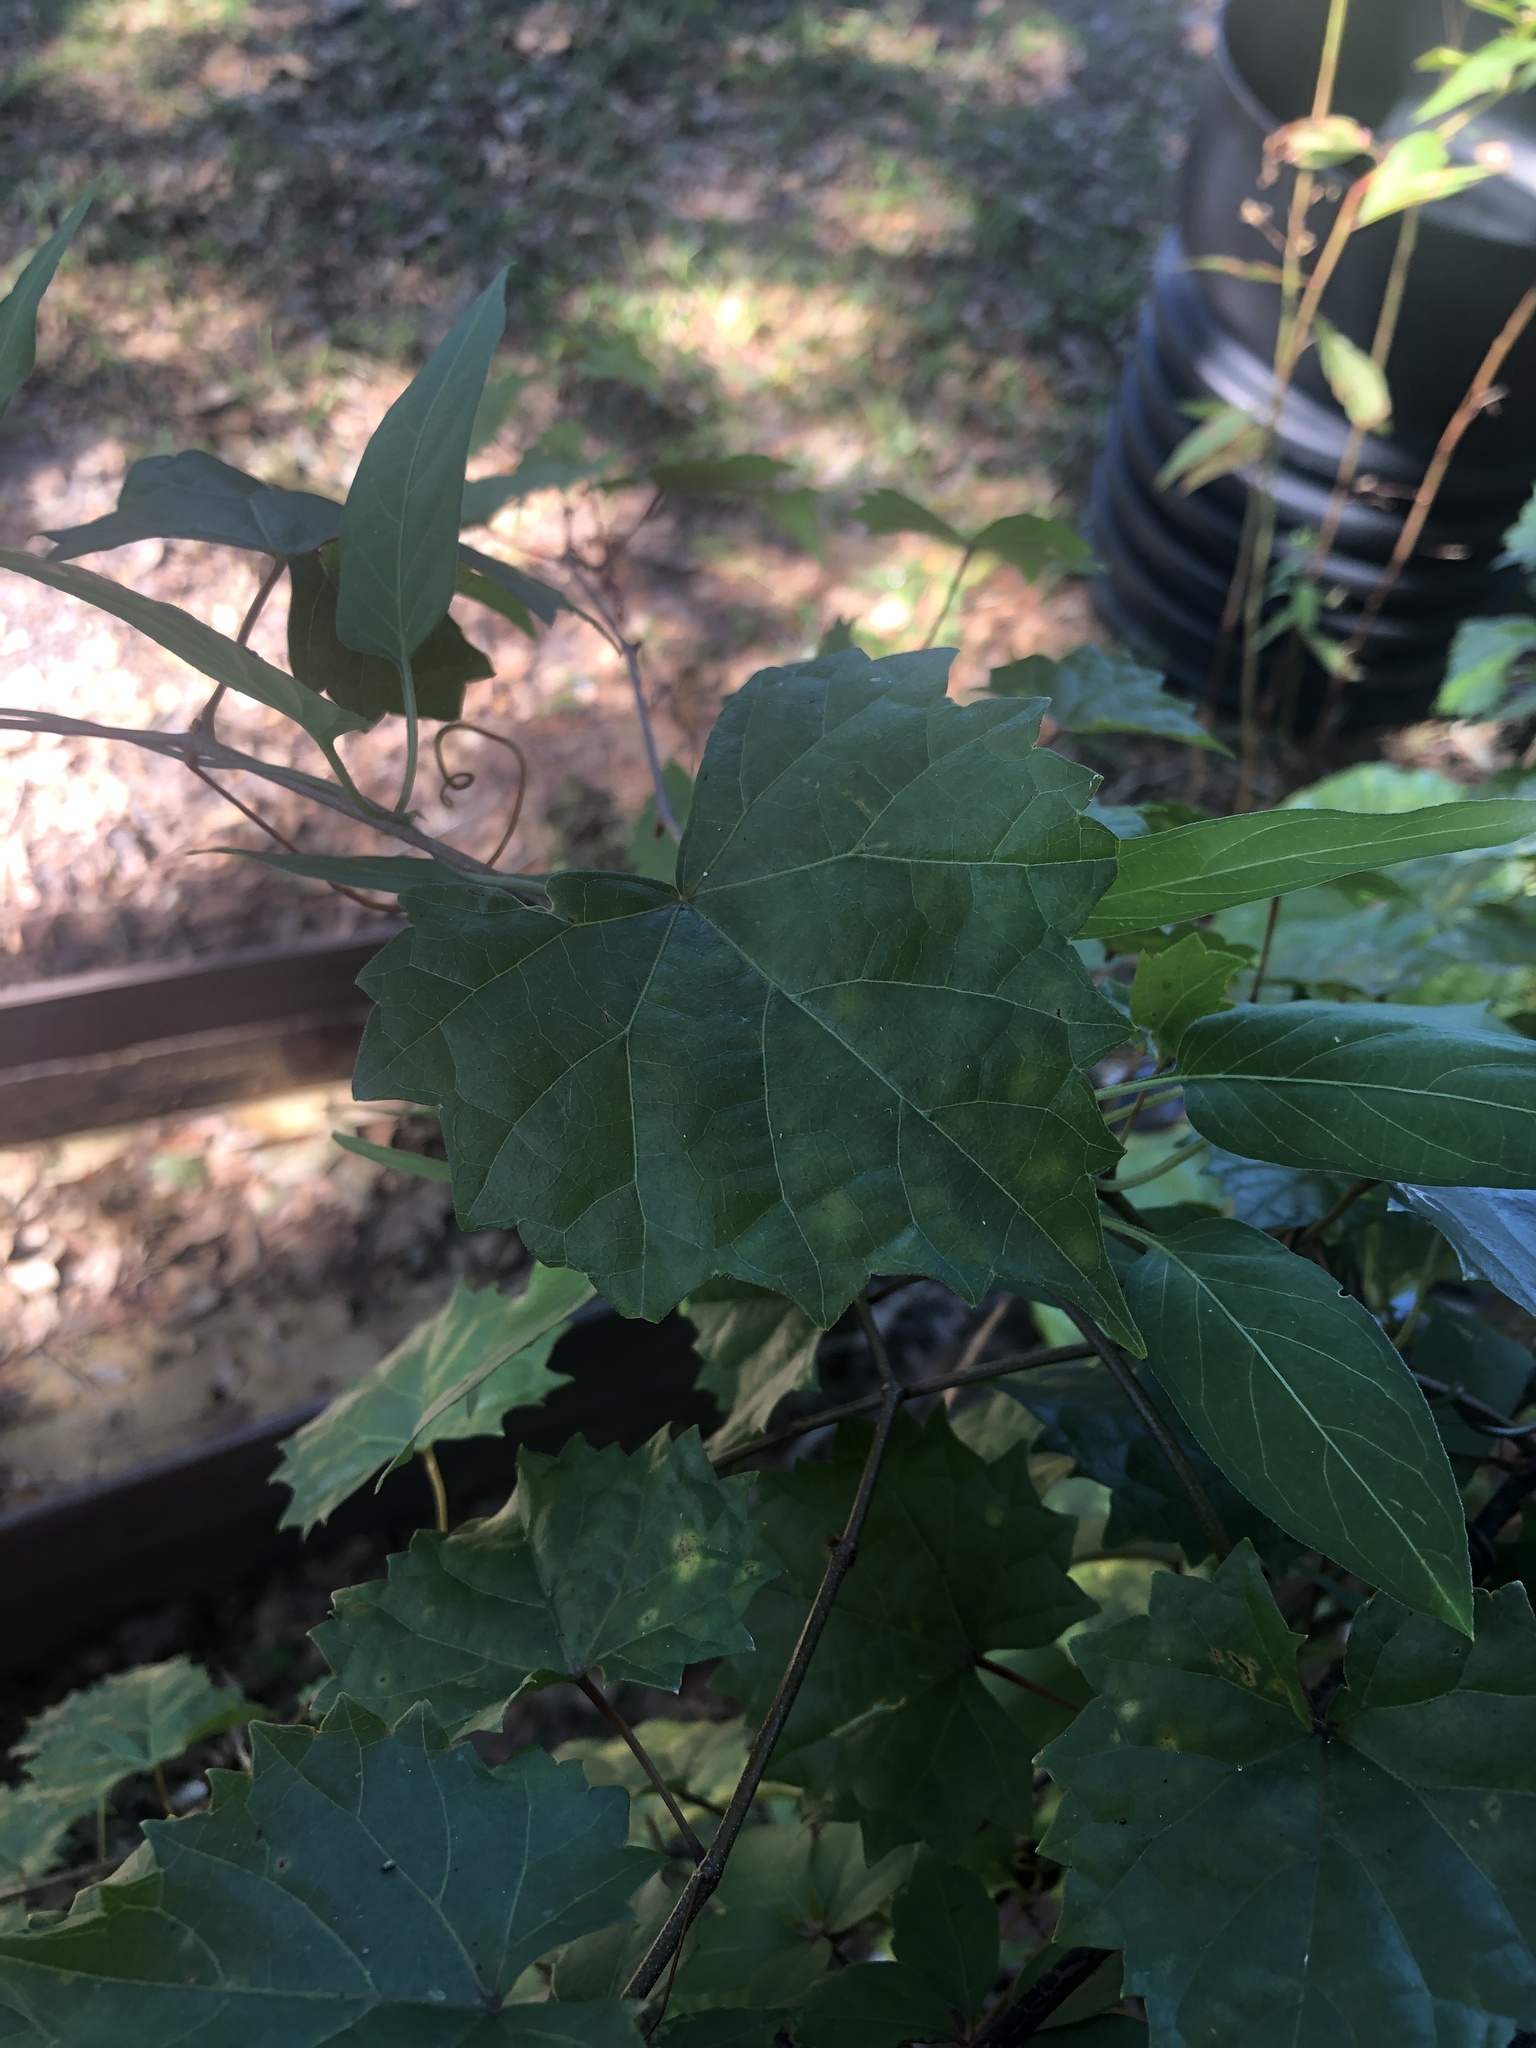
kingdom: Plantae
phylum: Tracheophyta
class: Magnoliopsida
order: Vitales
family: Vitaceae
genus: Vitis
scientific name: Vitis rotundifolia
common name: Muscadine grape
